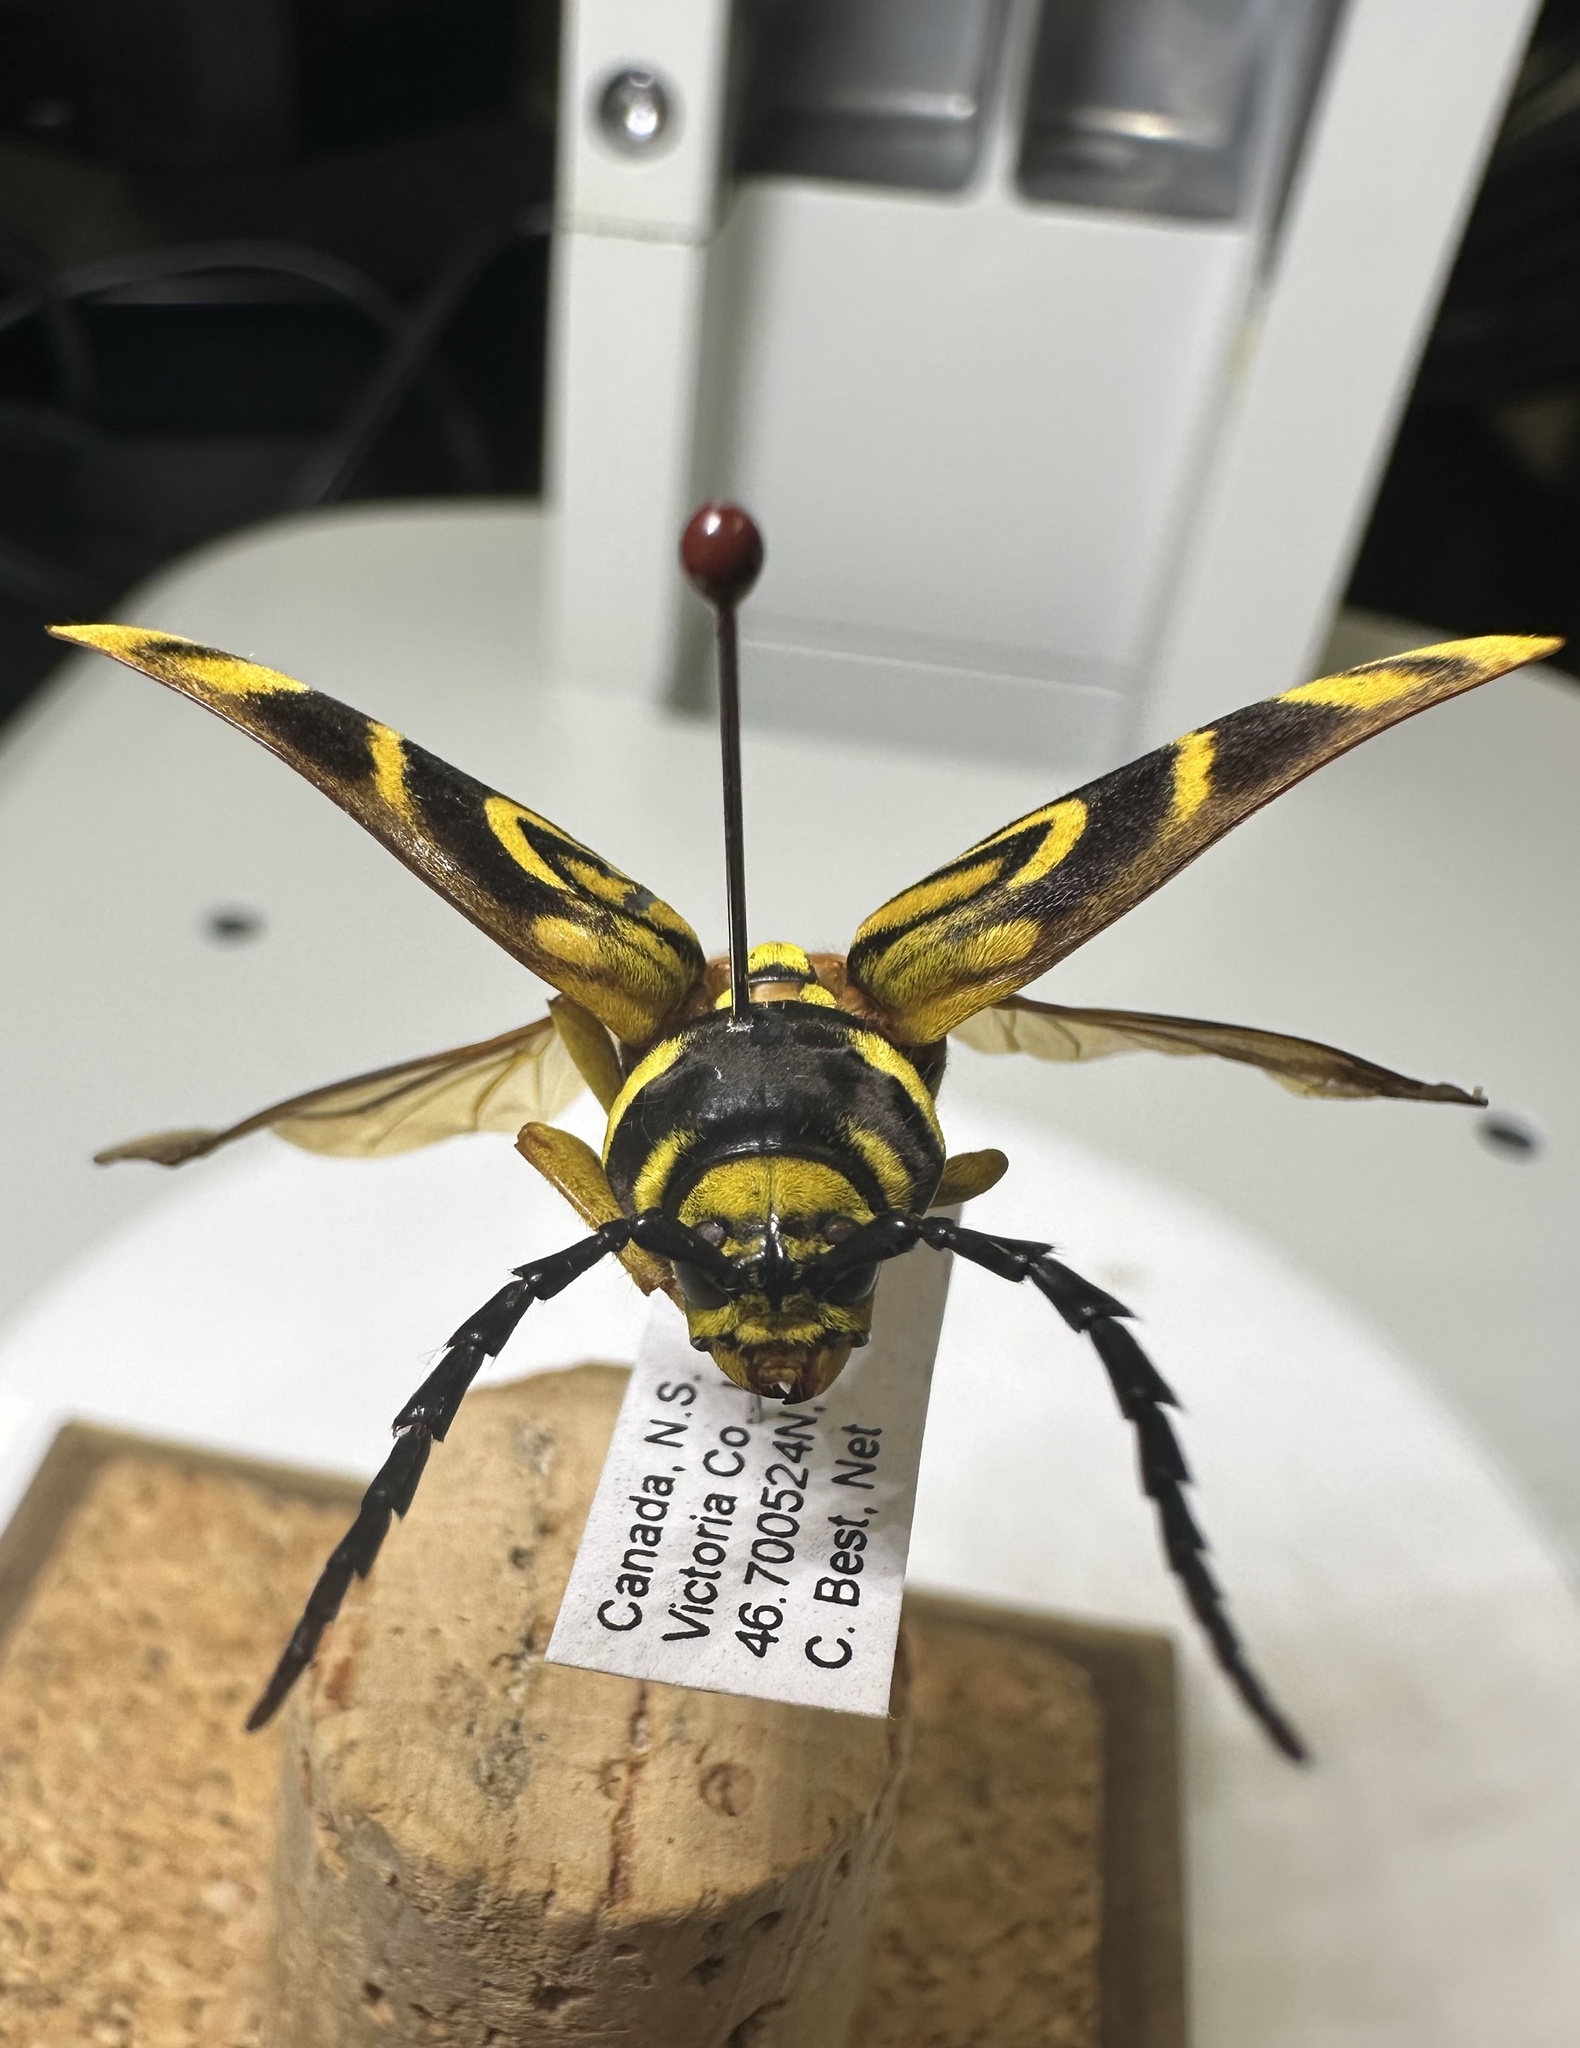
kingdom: Animalia
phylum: Arthropoda
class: Insecta
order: Coleoptera
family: Cerambycidae
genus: Glycobius
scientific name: Glycobius speciosus
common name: Sugar maple borer
